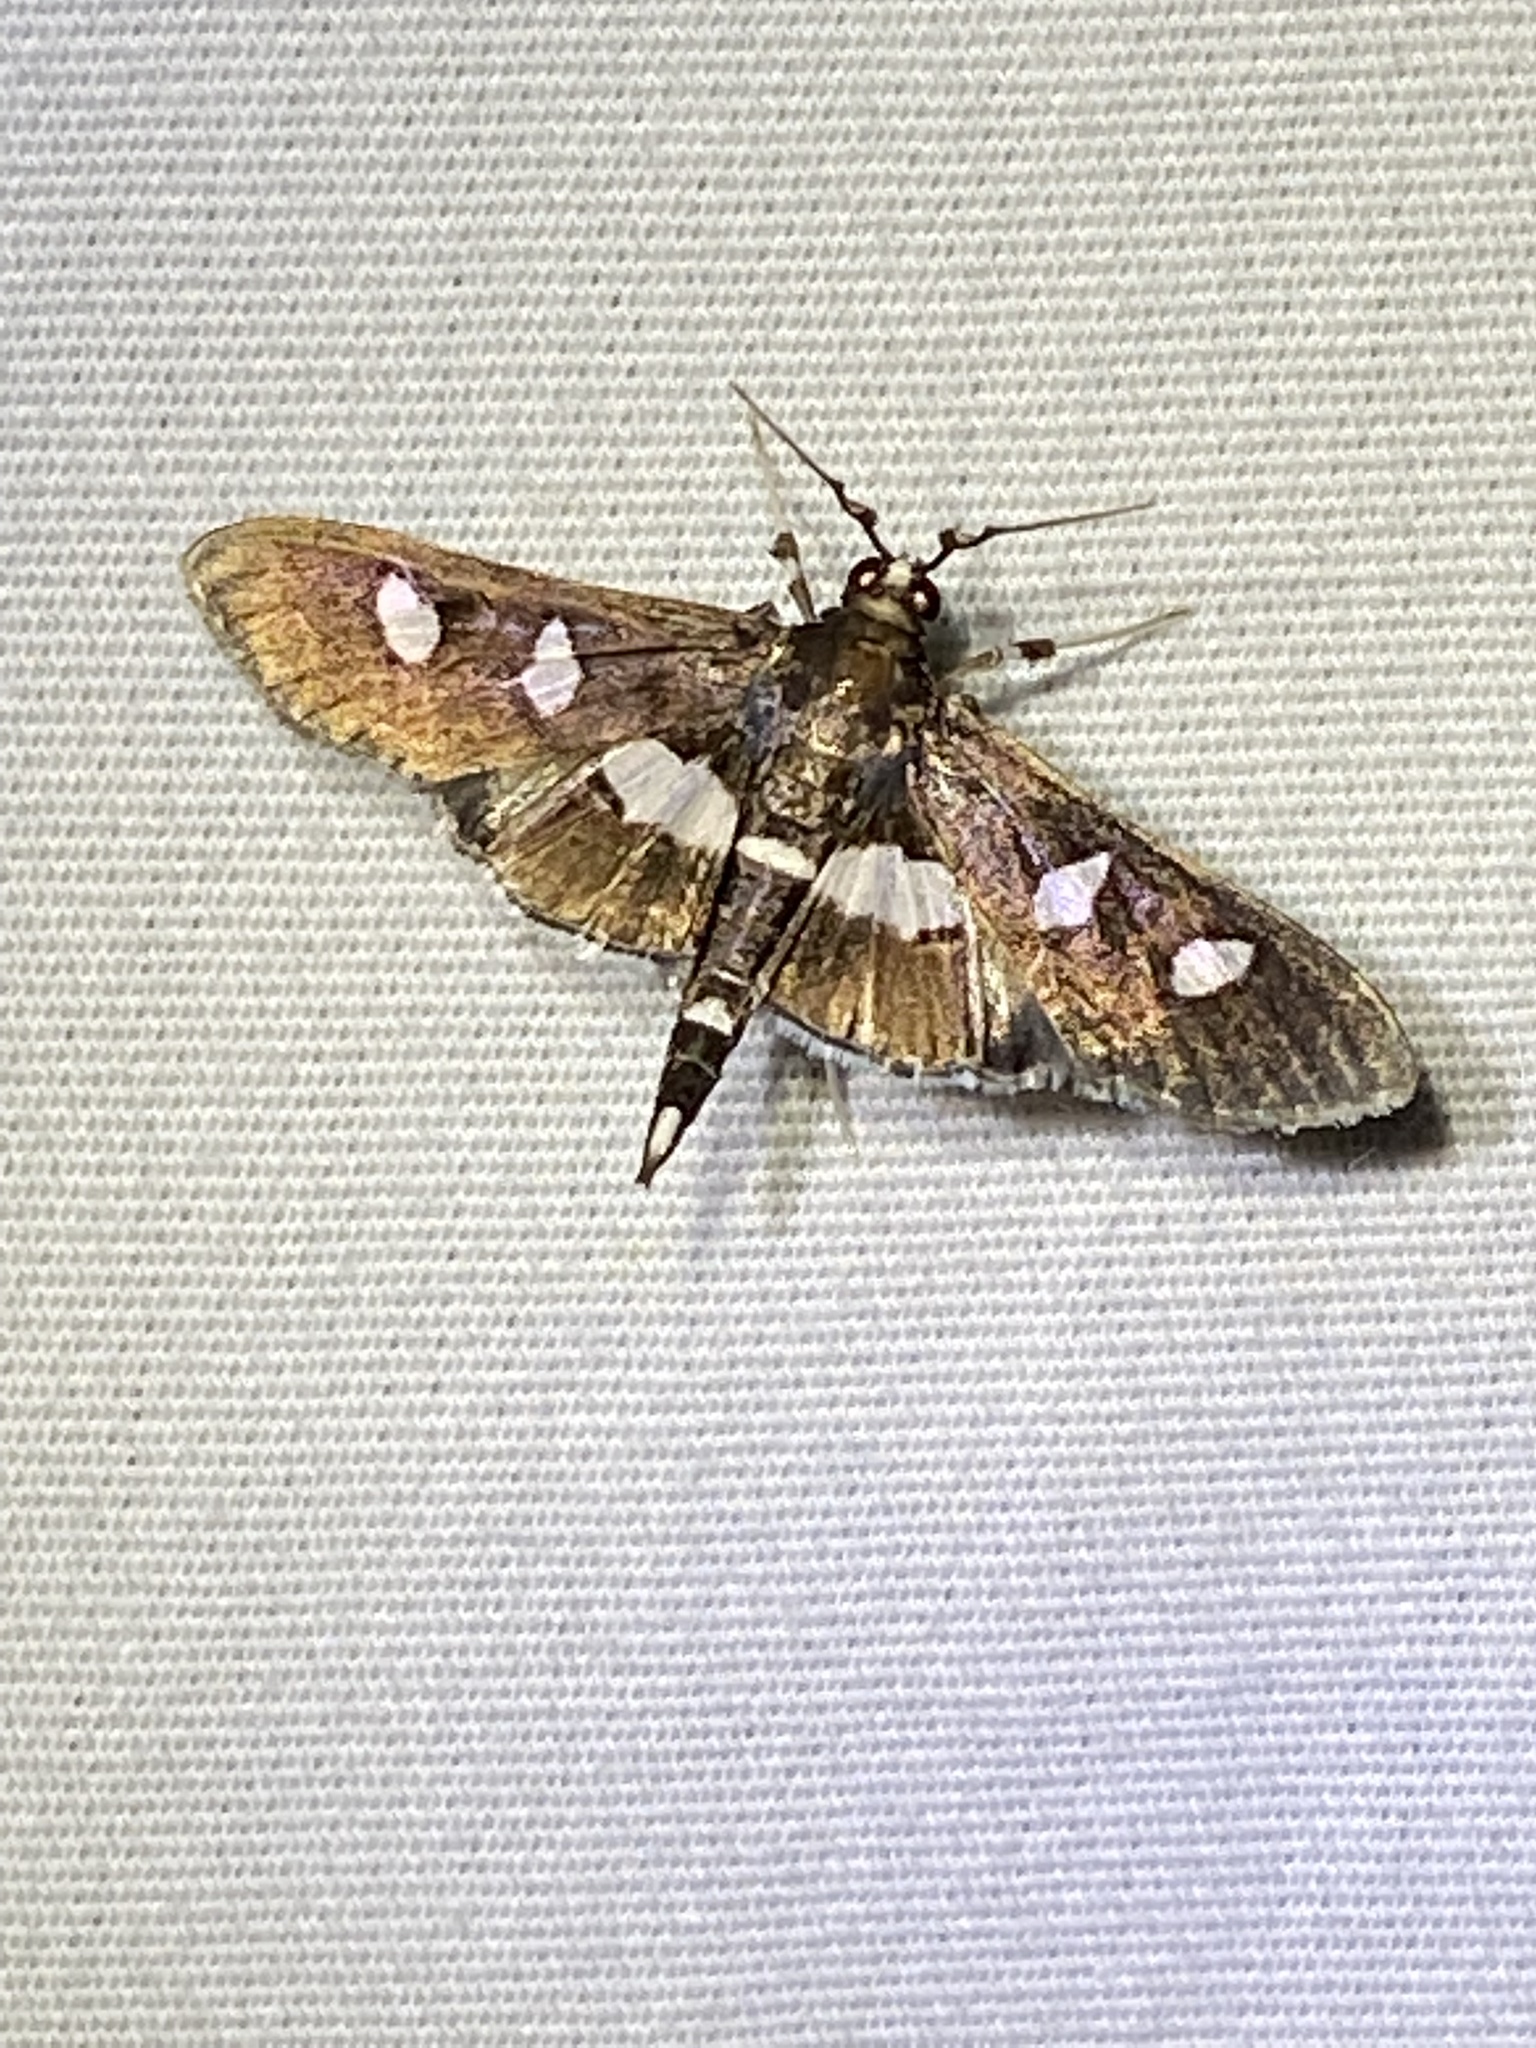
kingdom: Animalia
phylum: Arthropoda
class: Insecta
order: Lepidoptera
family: Crambidae
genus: Desmia
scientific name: Desmia
